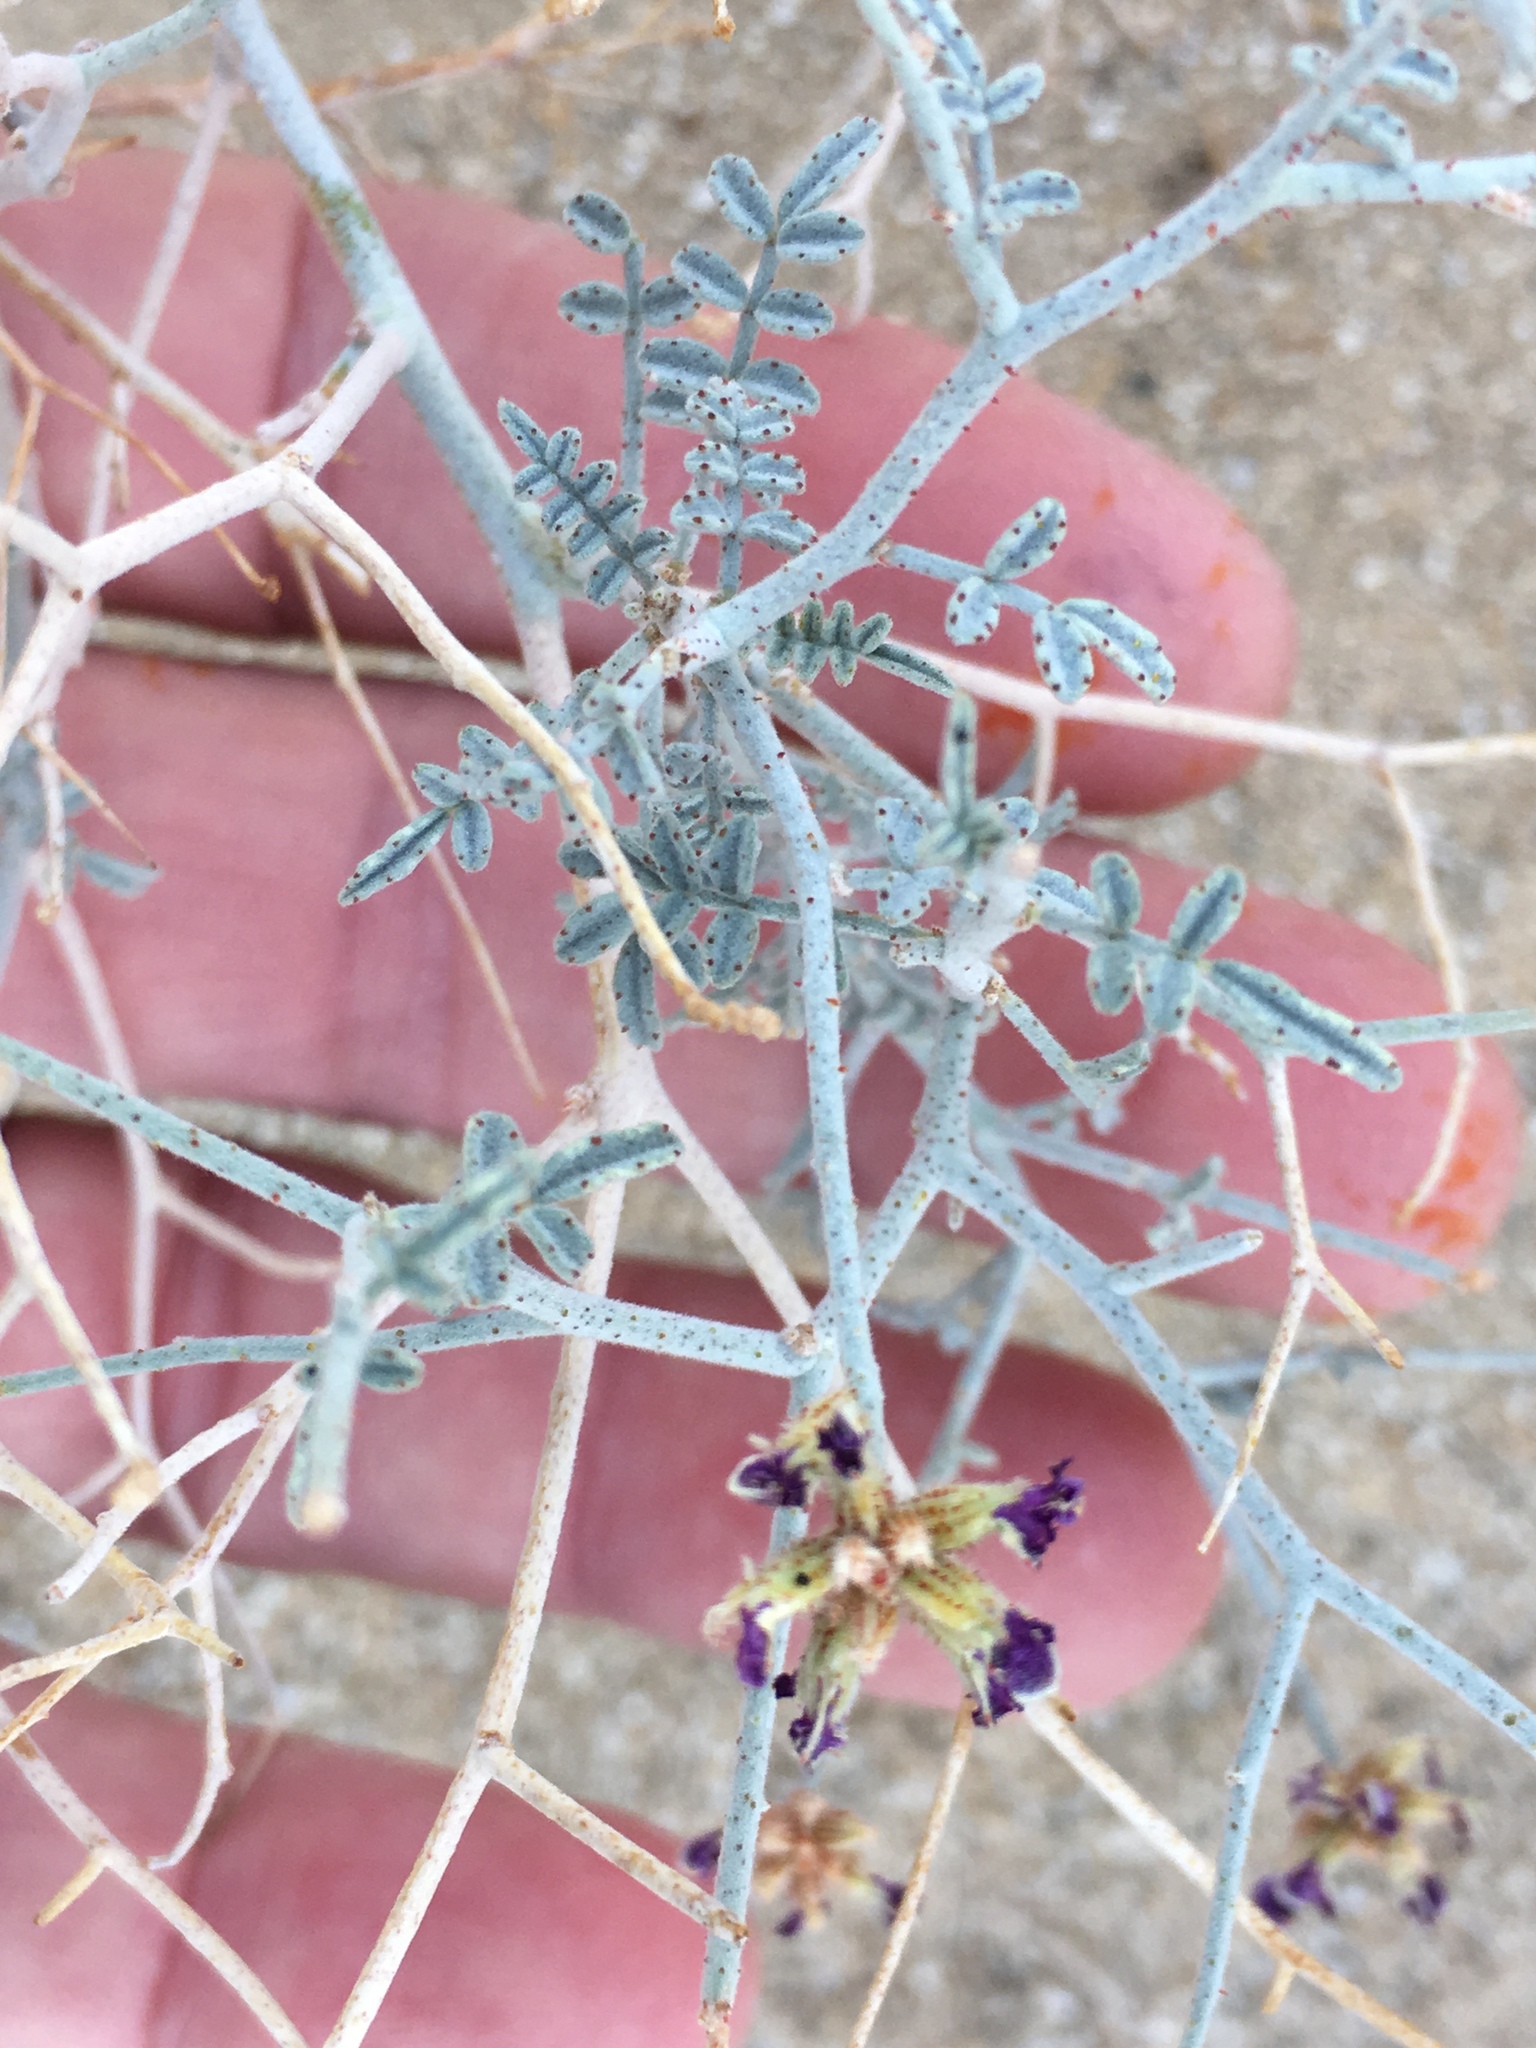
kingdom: Plantae
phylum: Tracheophyta
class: Magnoliopsida
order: Fabales
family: Fabaceae
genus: Psorothamnus
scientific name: Psorothamnus emoryi
